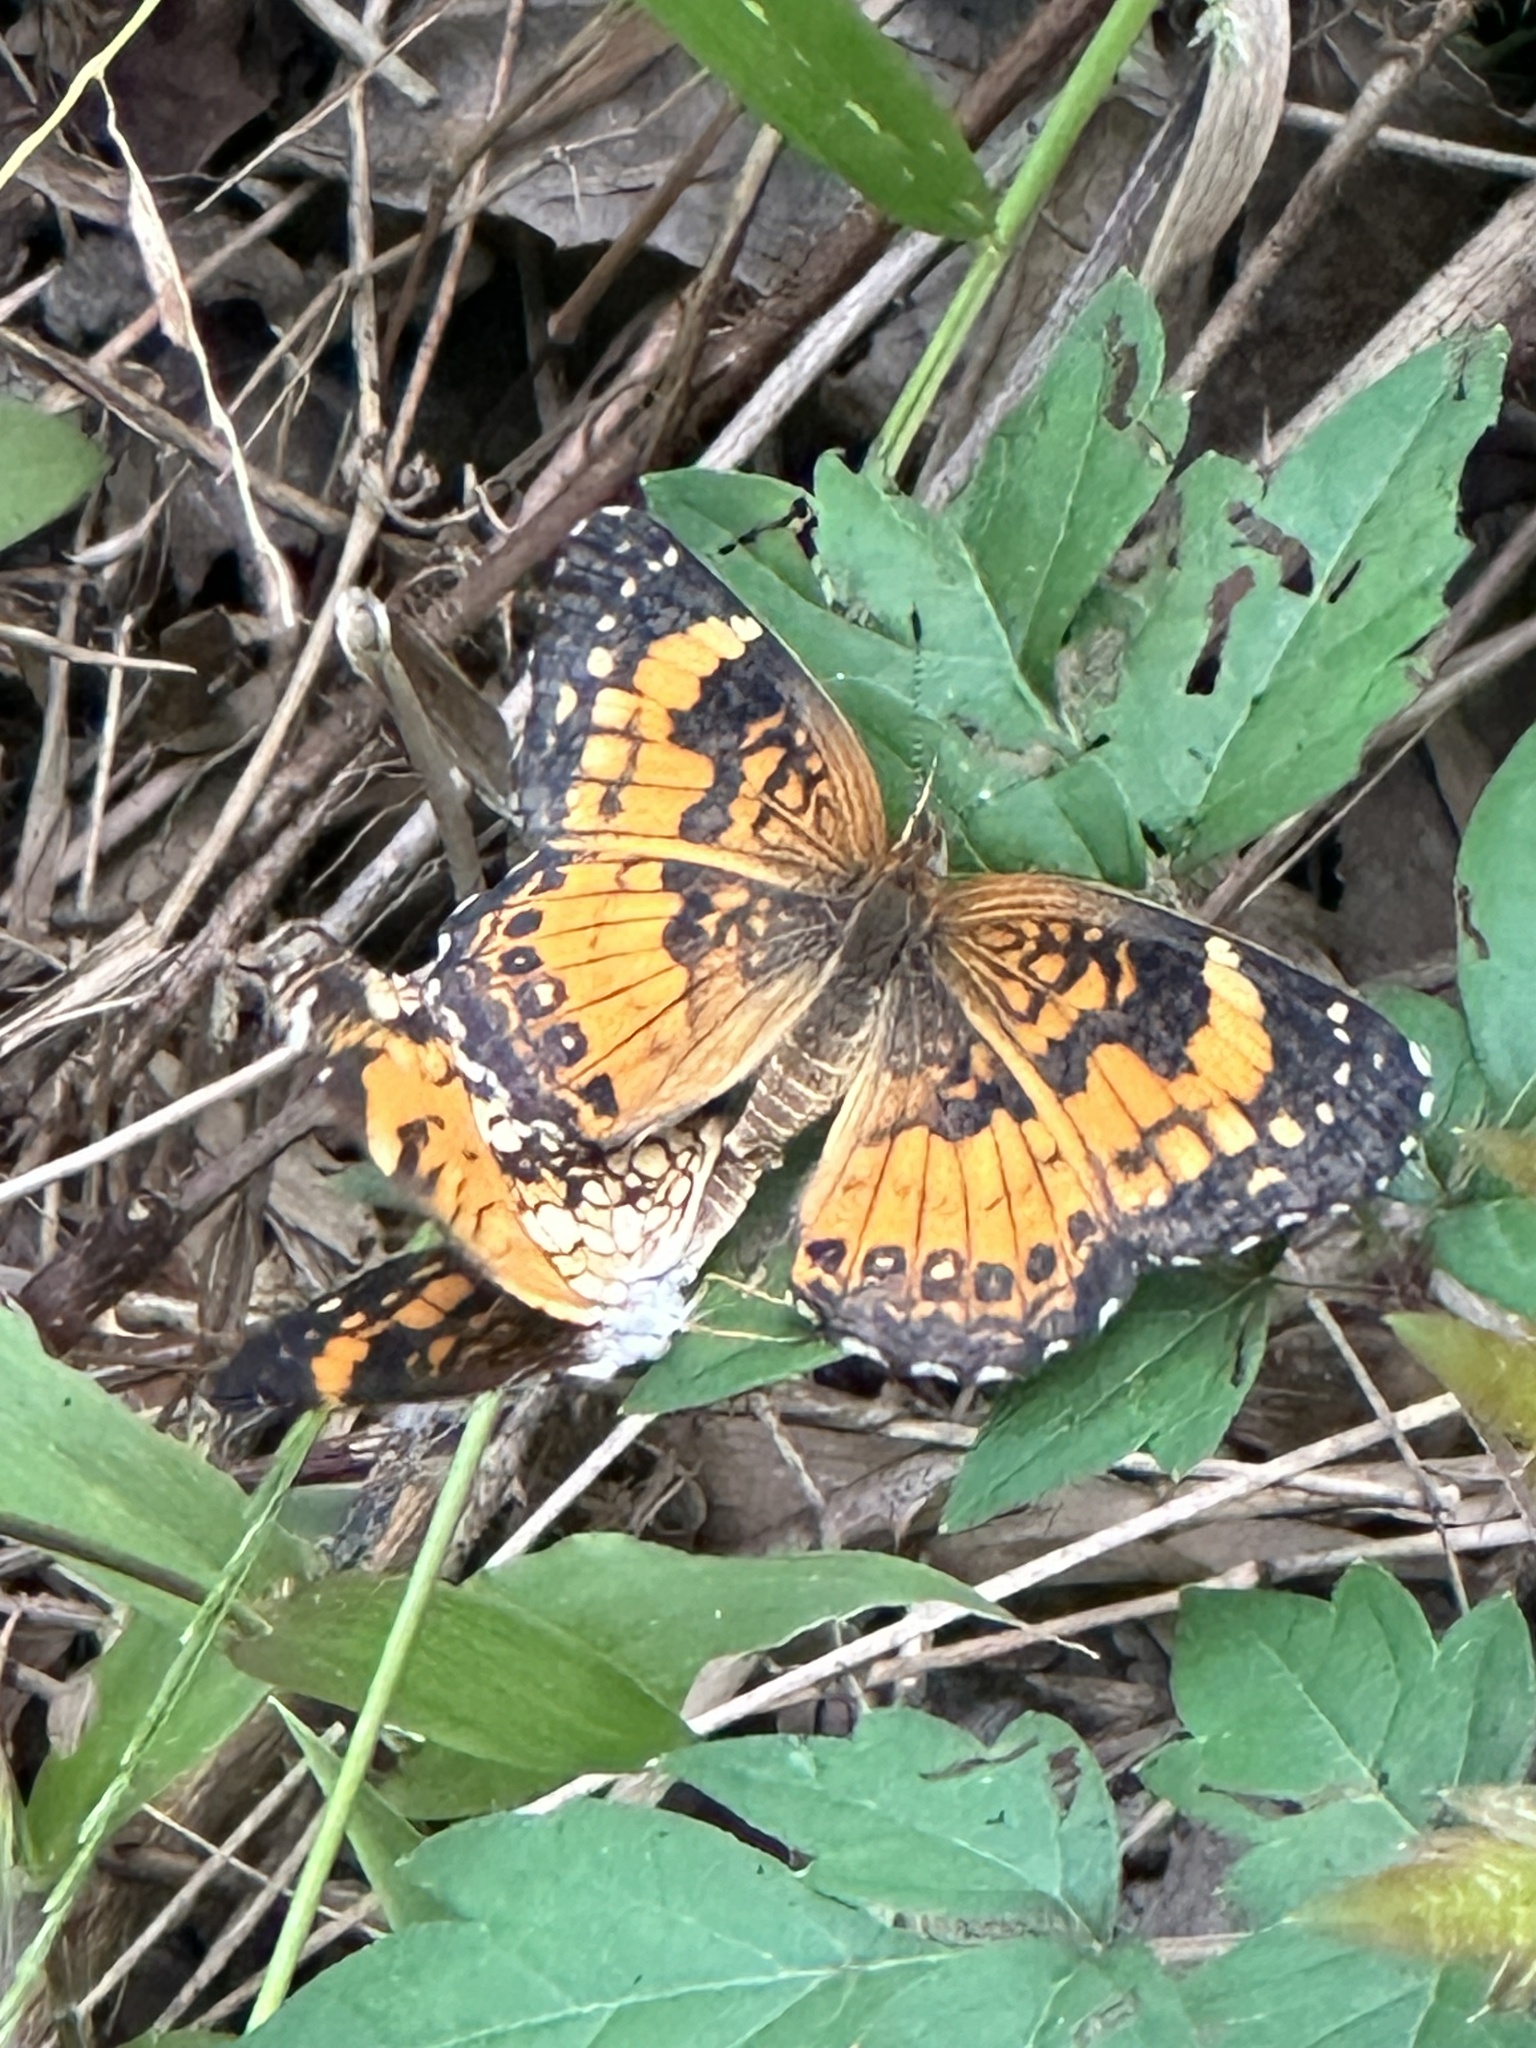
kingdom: Animalia
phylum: Arthropoda
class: Insecta
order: Lepidoptera
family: Nymphalidae
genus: Chlosyne
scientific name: Chlosyne nycteis
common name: Silvery checkerspot
